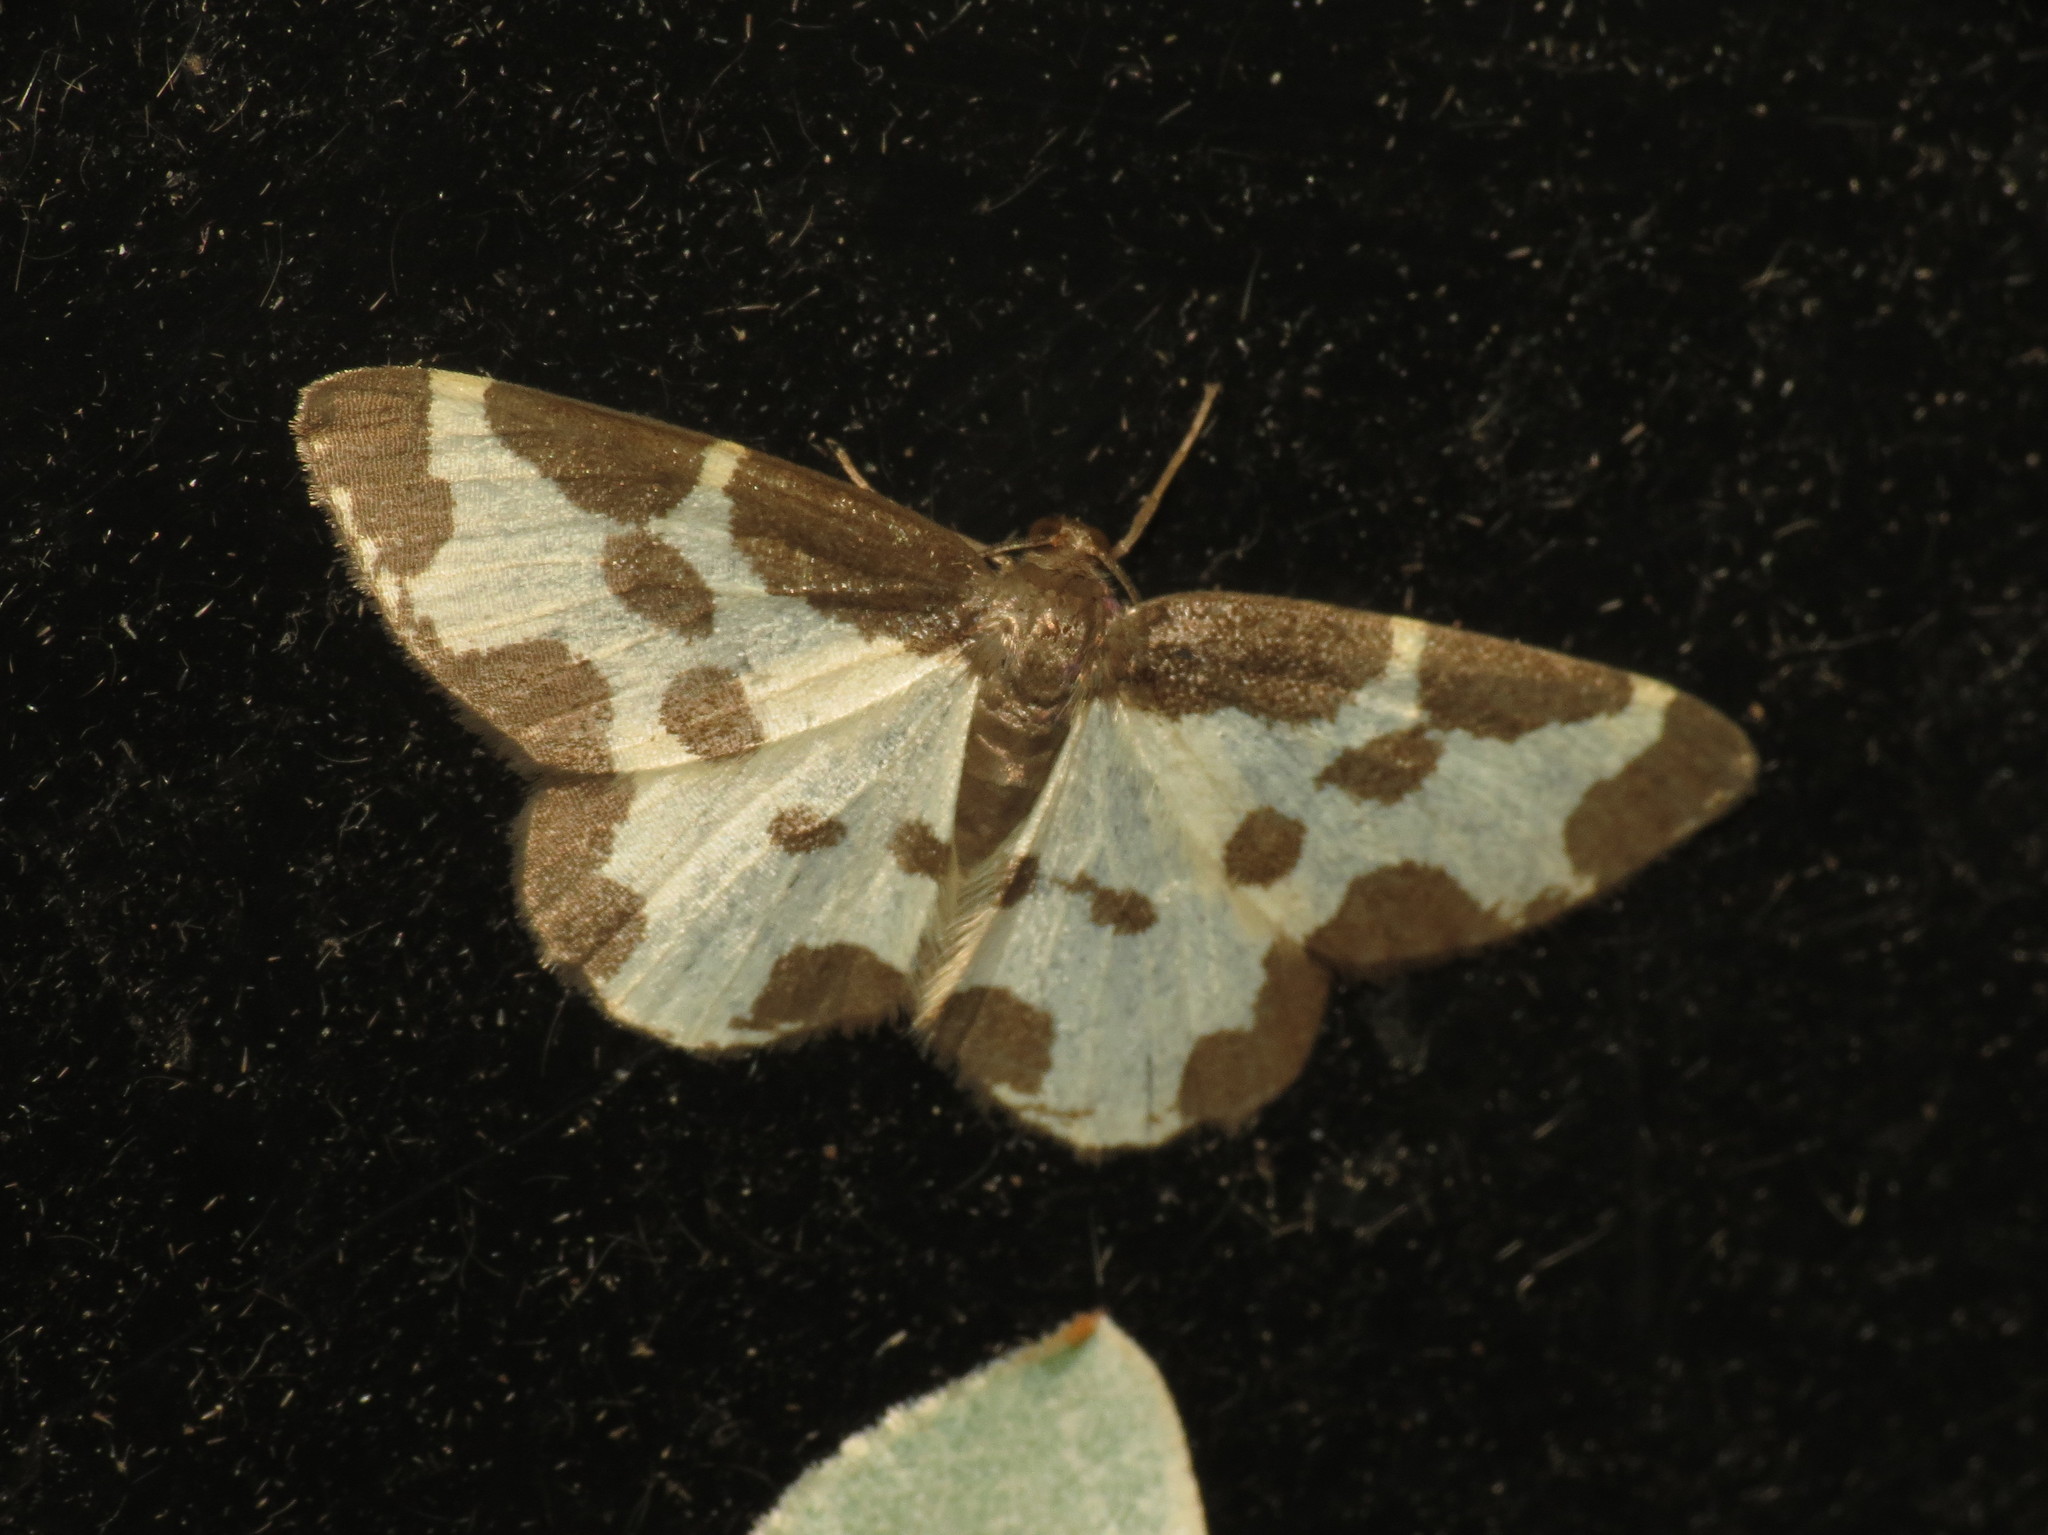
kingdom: Animalia
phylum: Arthropoda
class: Insecta
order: Lepidoptera
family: Geometridae
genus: Lomaspilis
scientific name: Lomaspilis marginata
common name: Clouded border
